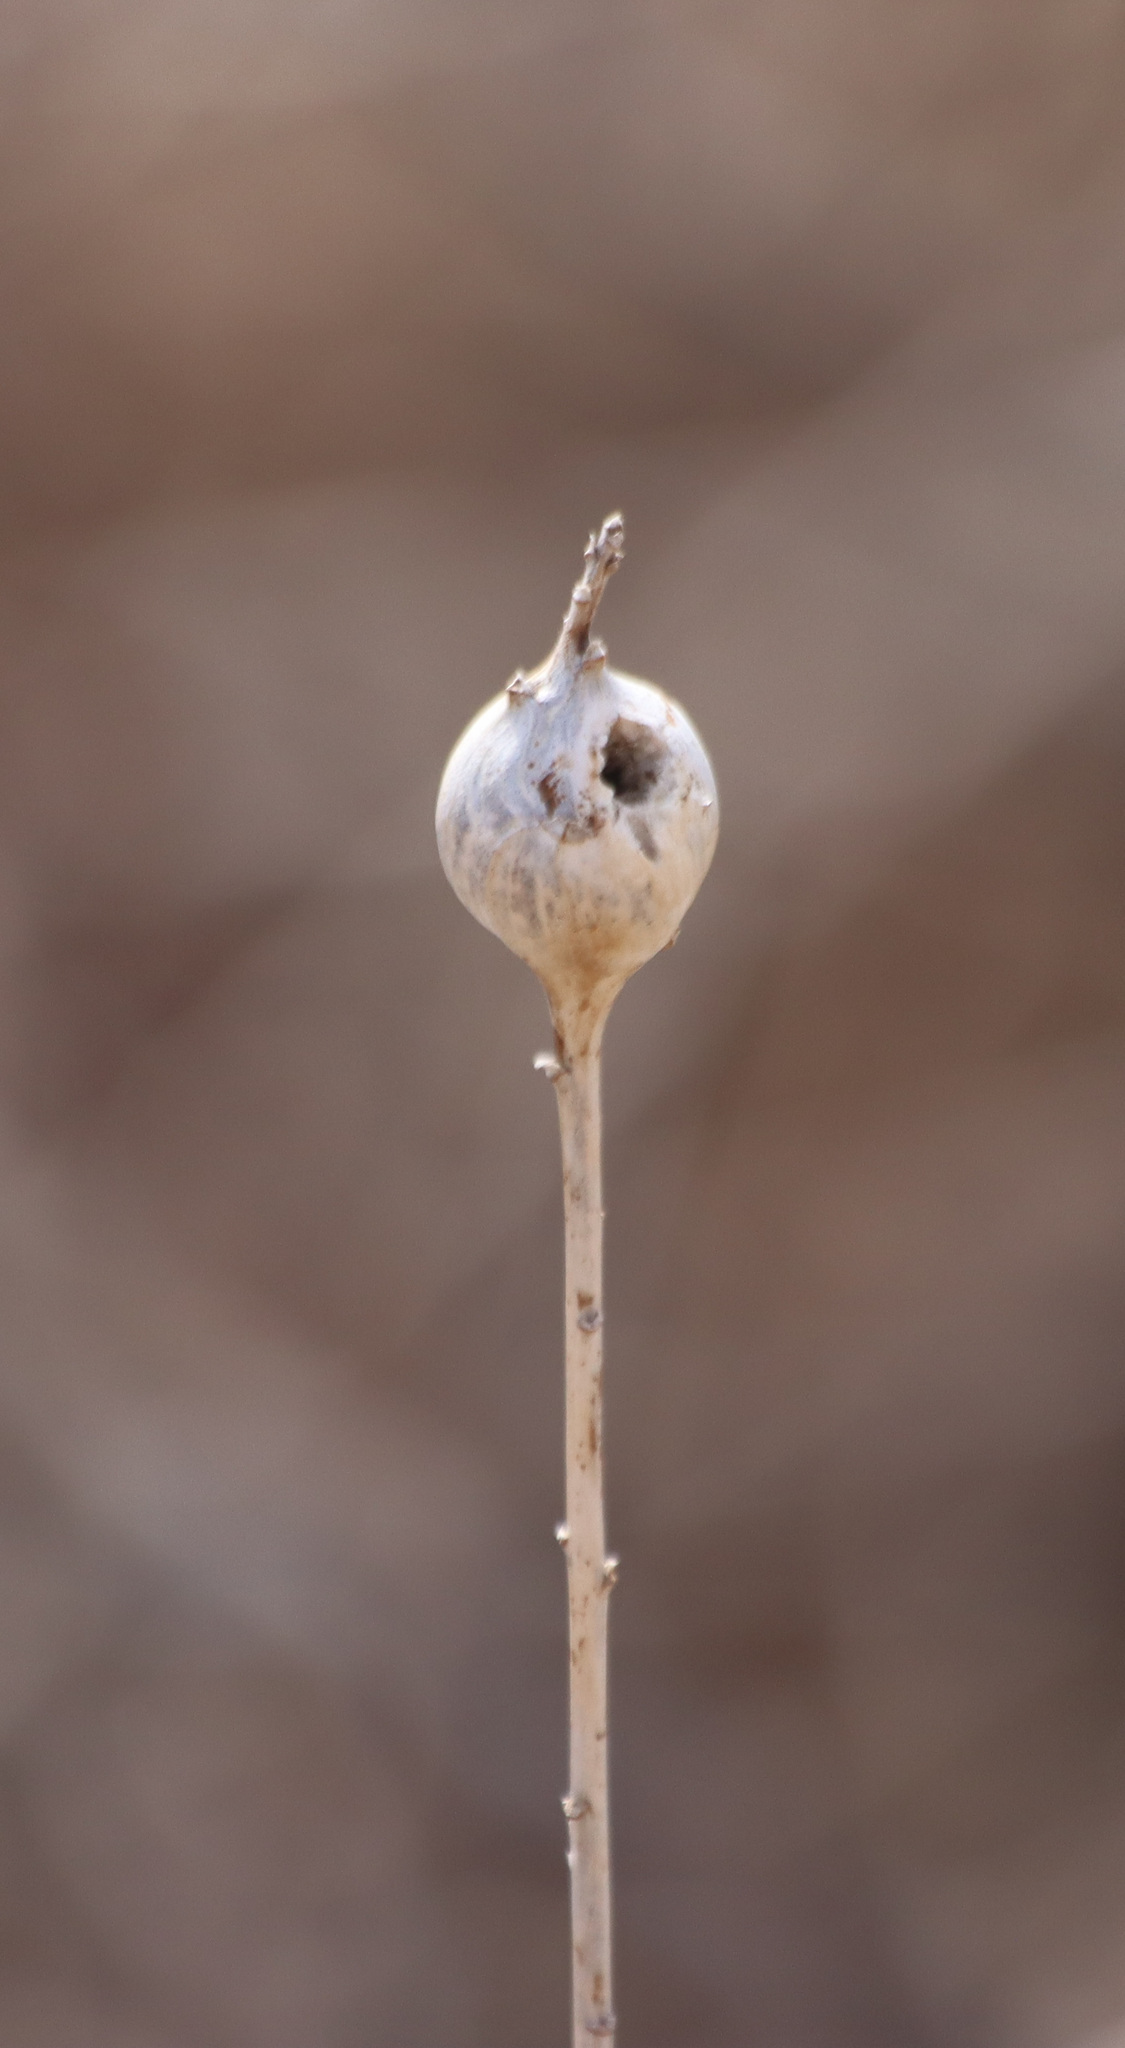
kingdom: Animalia
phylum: Arthropoda
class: Insecta
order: Diptera
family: Tephritidae
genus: Eurosta
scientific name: Eurosta solidaginis
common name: Goldenrod gall fly
